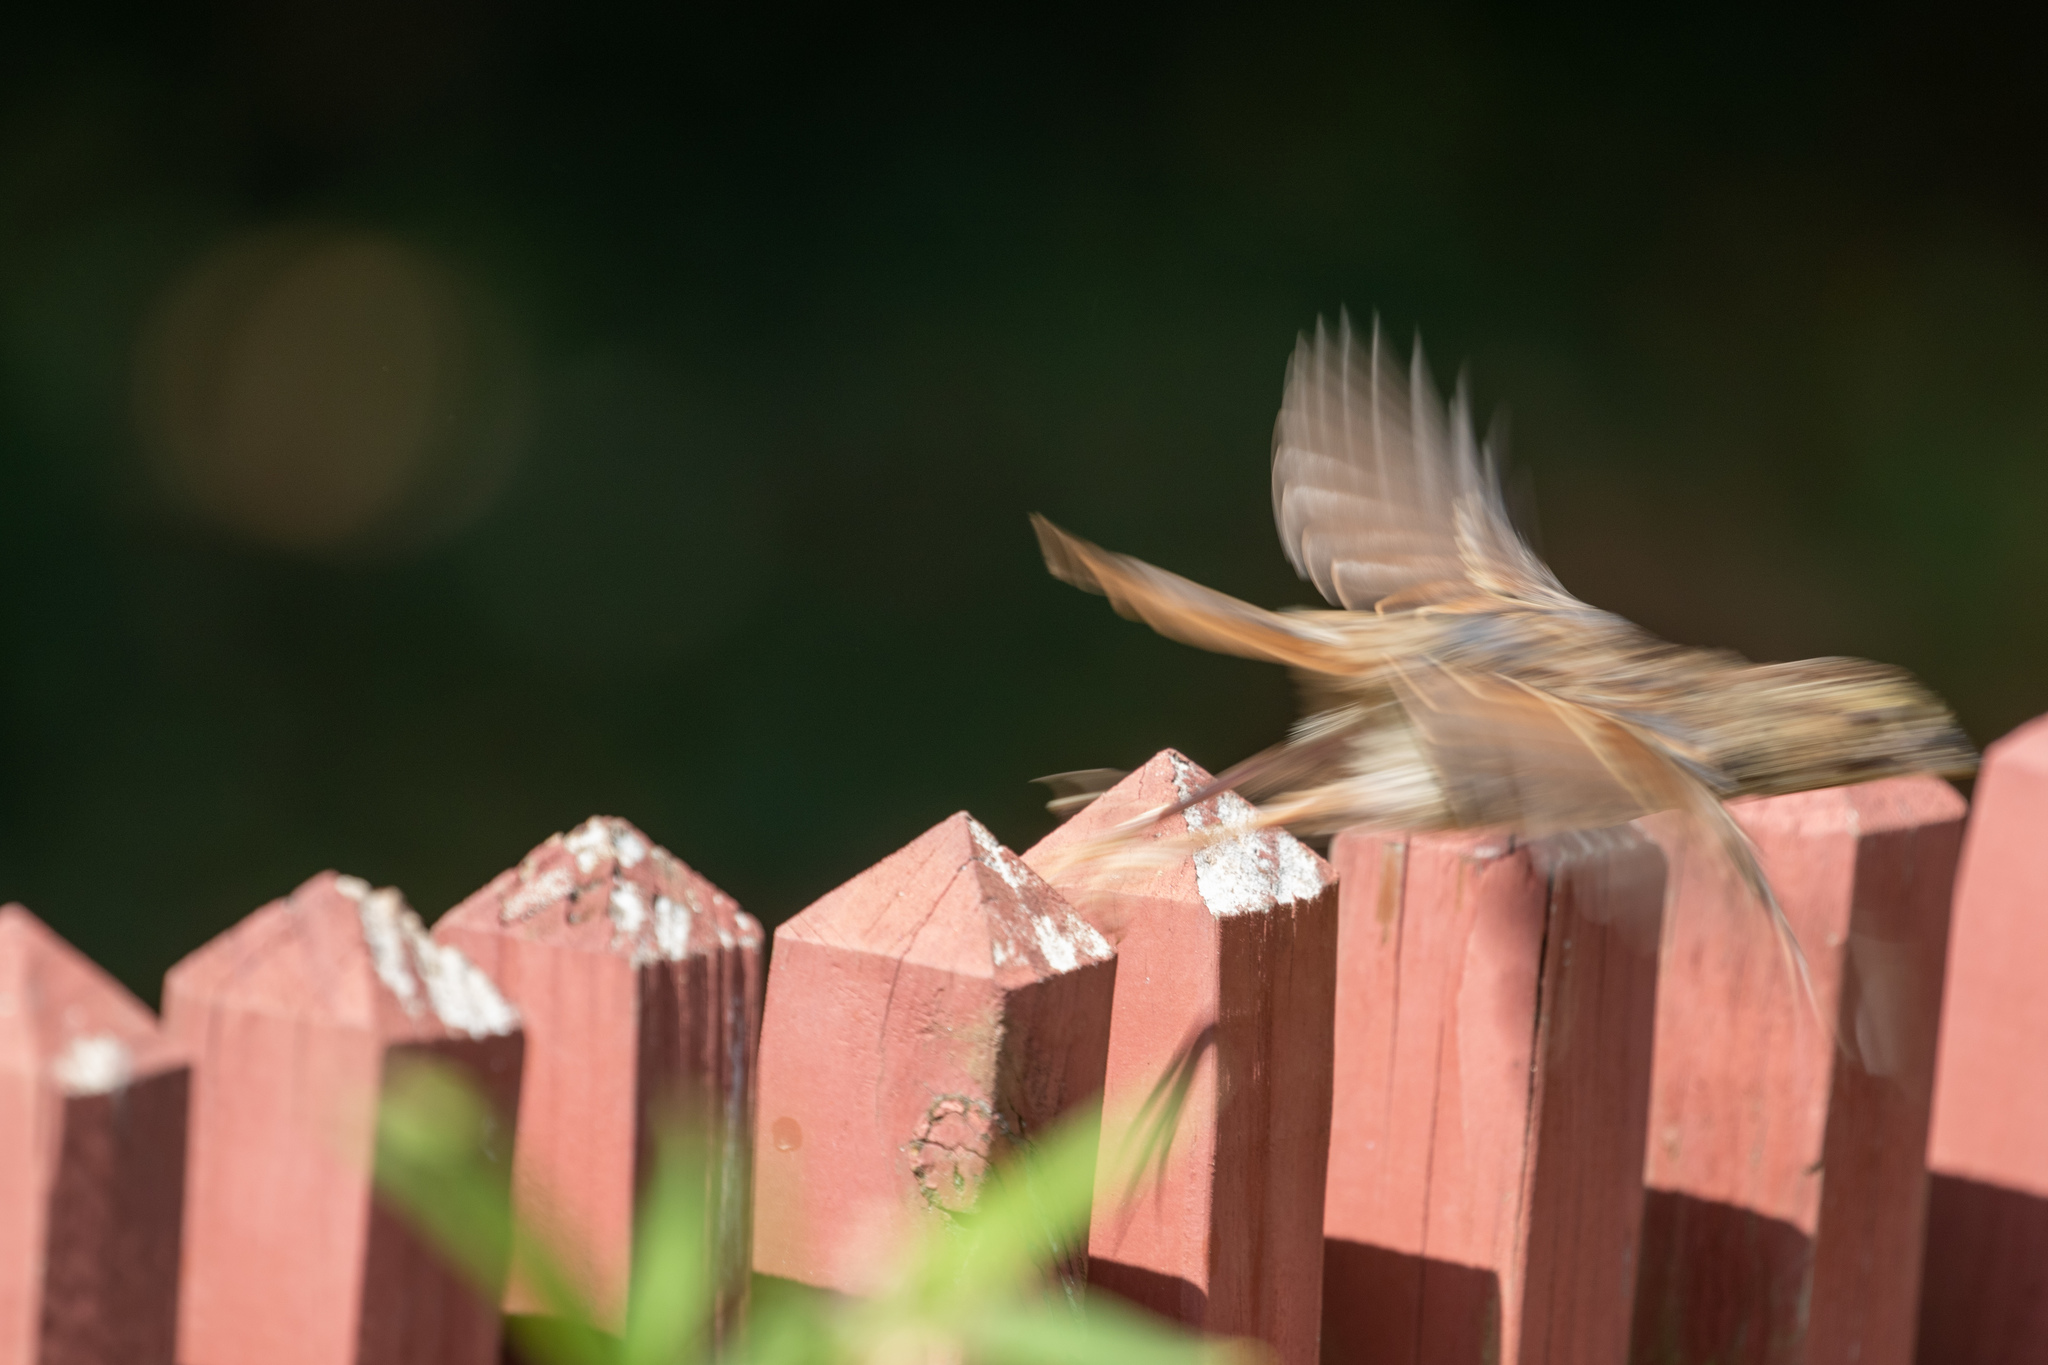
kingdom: Animalia
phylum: Chordata
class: Aves
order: Passeriformes
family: Passerellidae
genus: Melospiza
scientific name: Melospiza melodia
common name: Song sparrow
